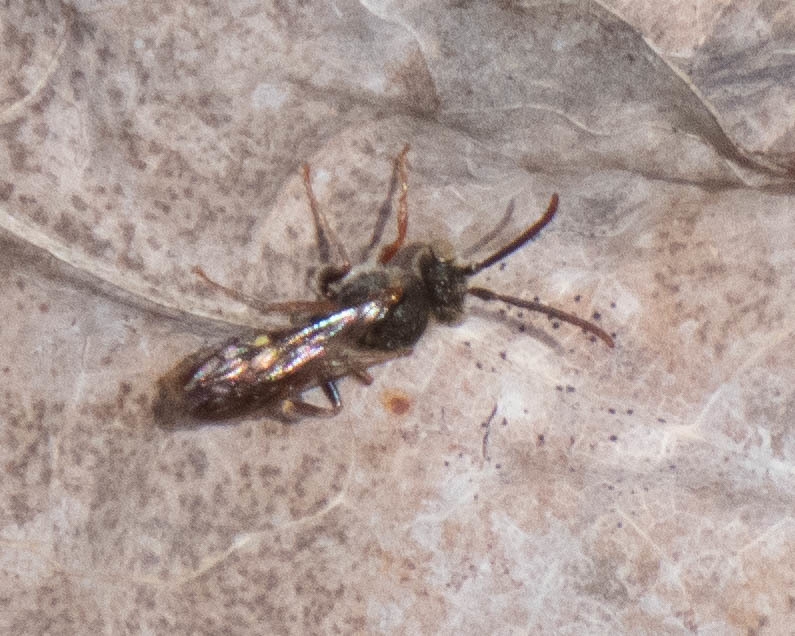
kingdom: Animalia
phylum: Arthropoda
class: Insecta
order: Hymenoptera
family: Apidae
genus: Nomada
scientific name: Nomada
